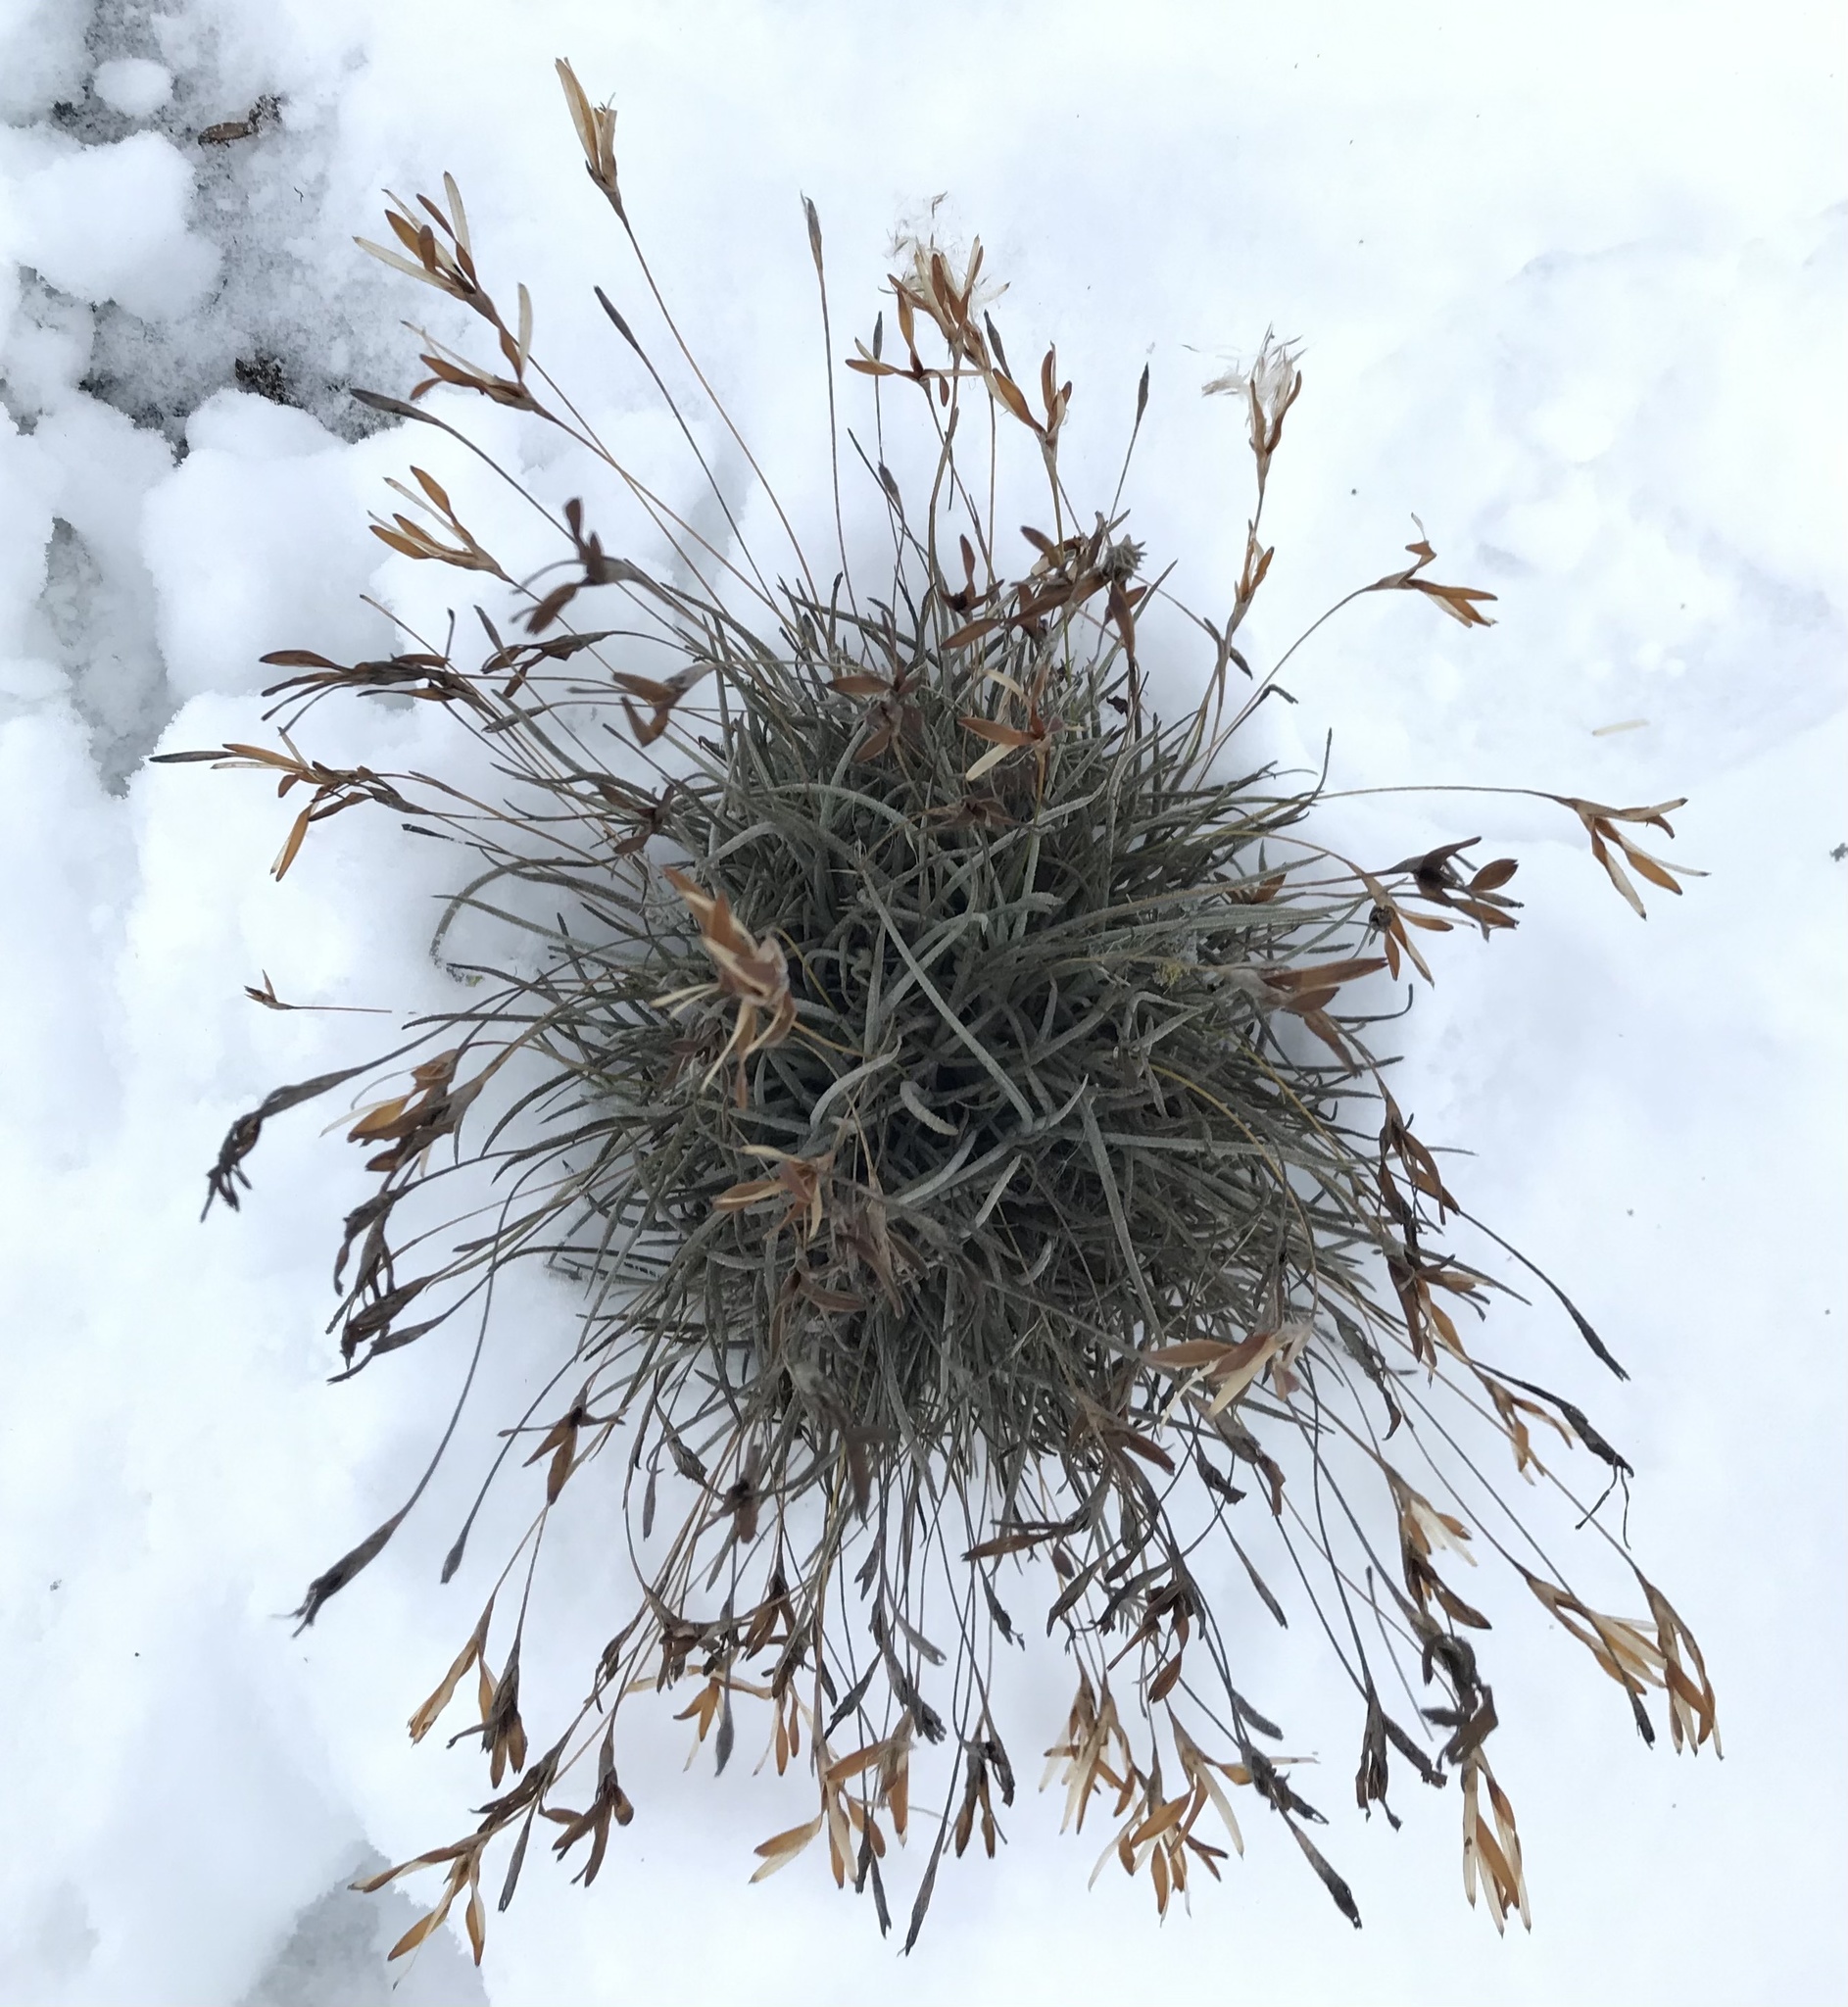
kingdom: Plantae
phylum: Tracheophyta
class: Liliopsida
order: Poales
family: Bromeliaceae
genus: Tillandsia
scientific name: Tillandsia recurvata
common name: Small ballmoss
